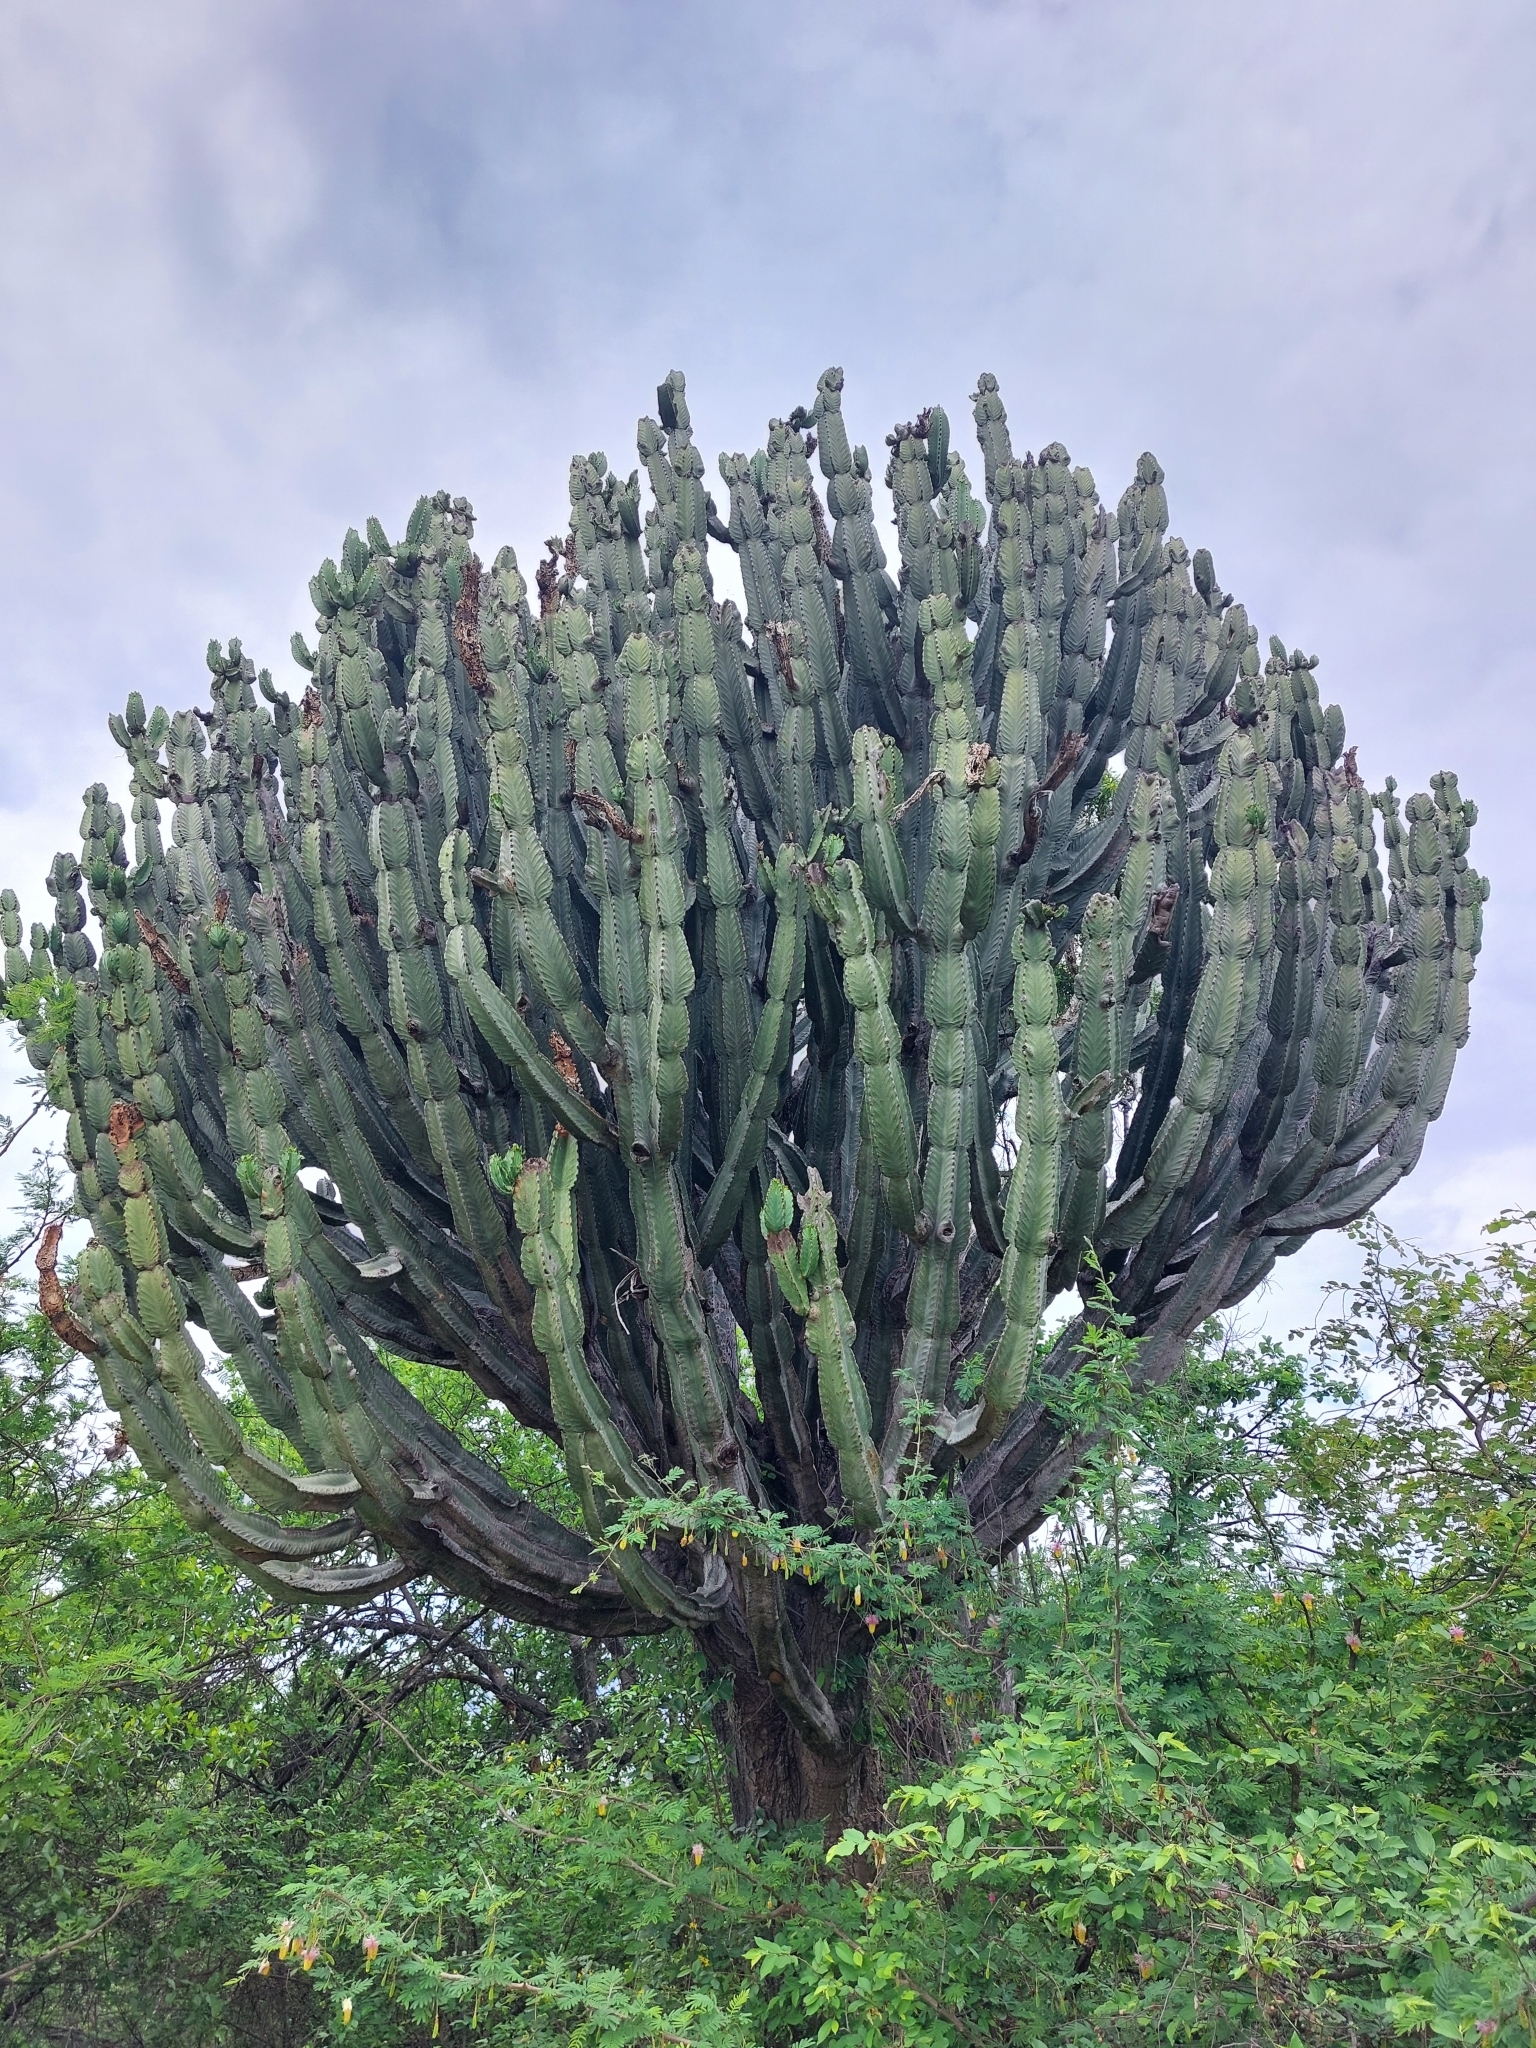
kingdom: Plantae
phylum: Tracheophyta
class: Magnoliopsida
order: Malpighiales
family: Euphorbiaceae
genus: Euphorbia
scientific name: Euphorbia ingens
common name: Cactus spurge
